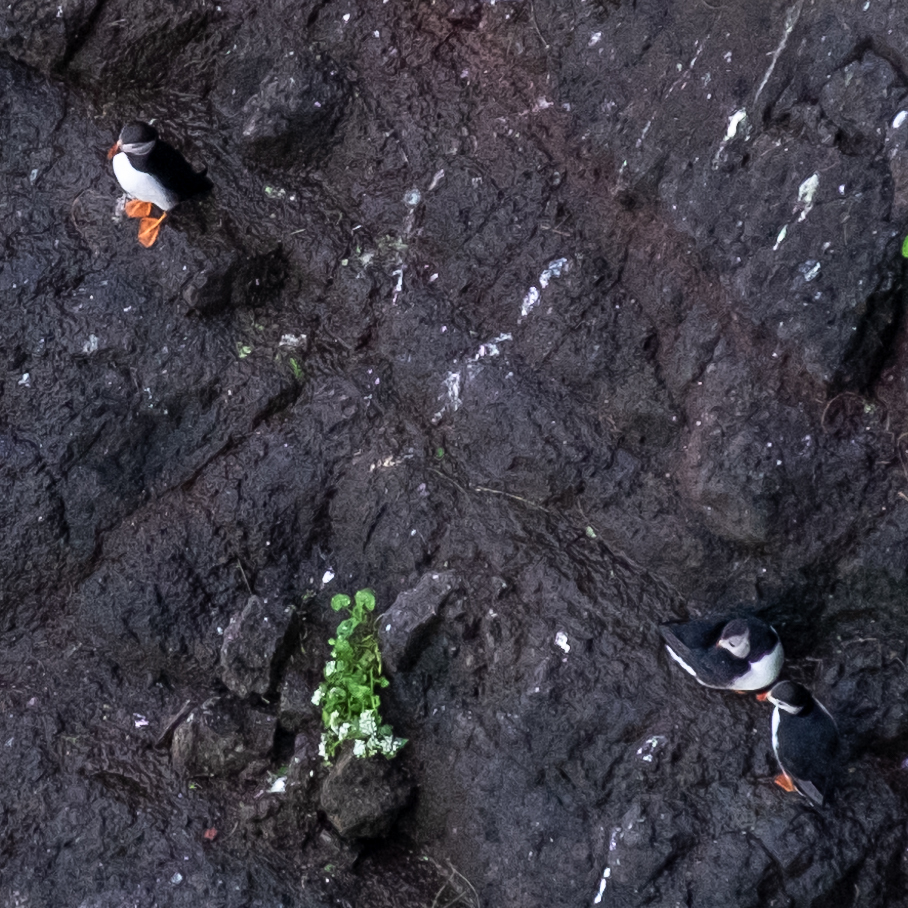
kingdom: Animalia
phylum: Chordata
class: Aves
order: Charadriiformes
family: Alcidae
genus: Fratercula
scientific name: Fratercula arctica
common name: Atlantic puffin
